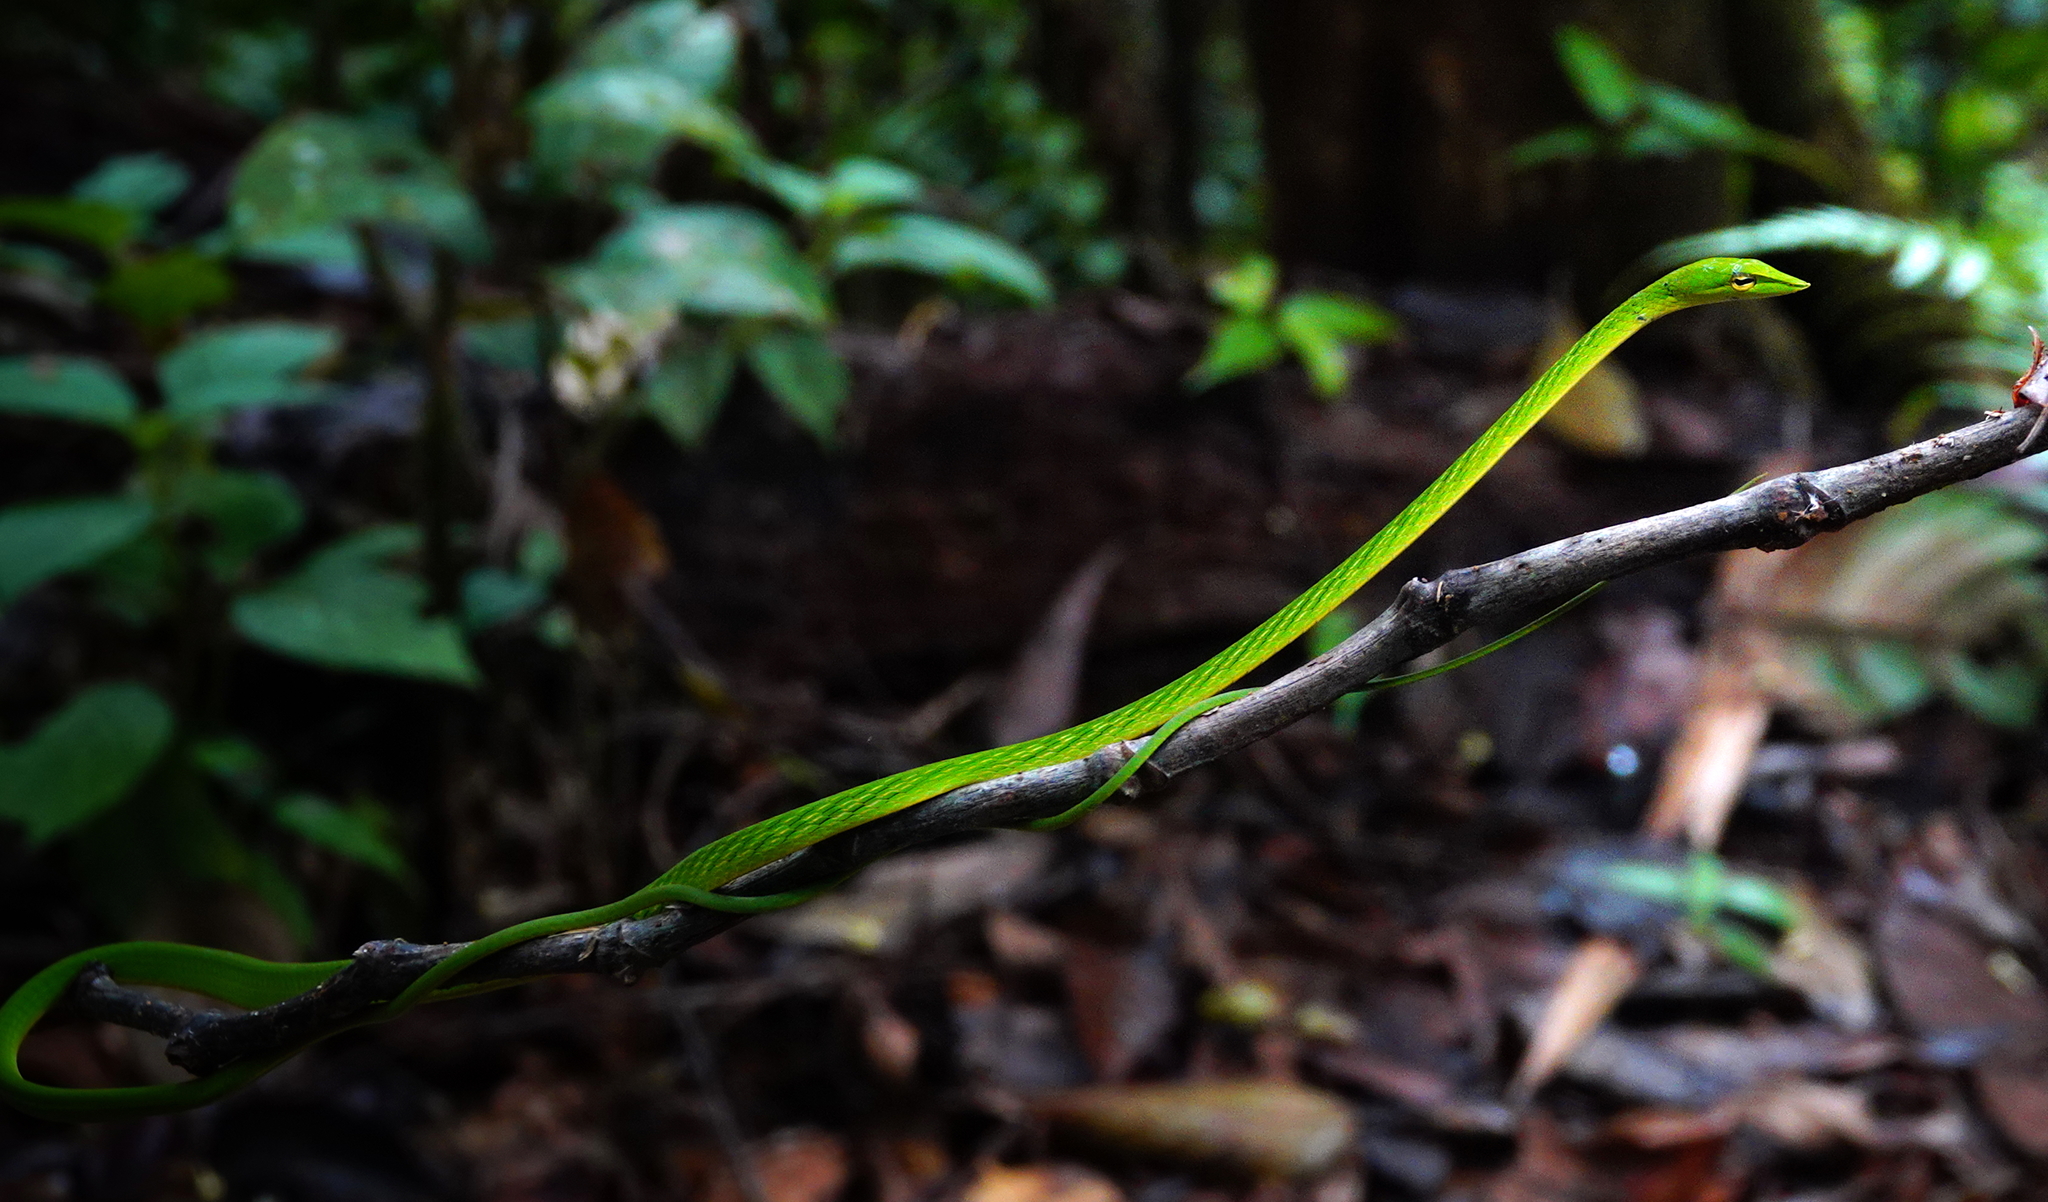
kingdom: Animalia
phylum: Chordata
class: Squamata
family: Colubridae
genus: Ahaetulla
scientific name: Ahaetulla nasuta
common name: Green vine snake
